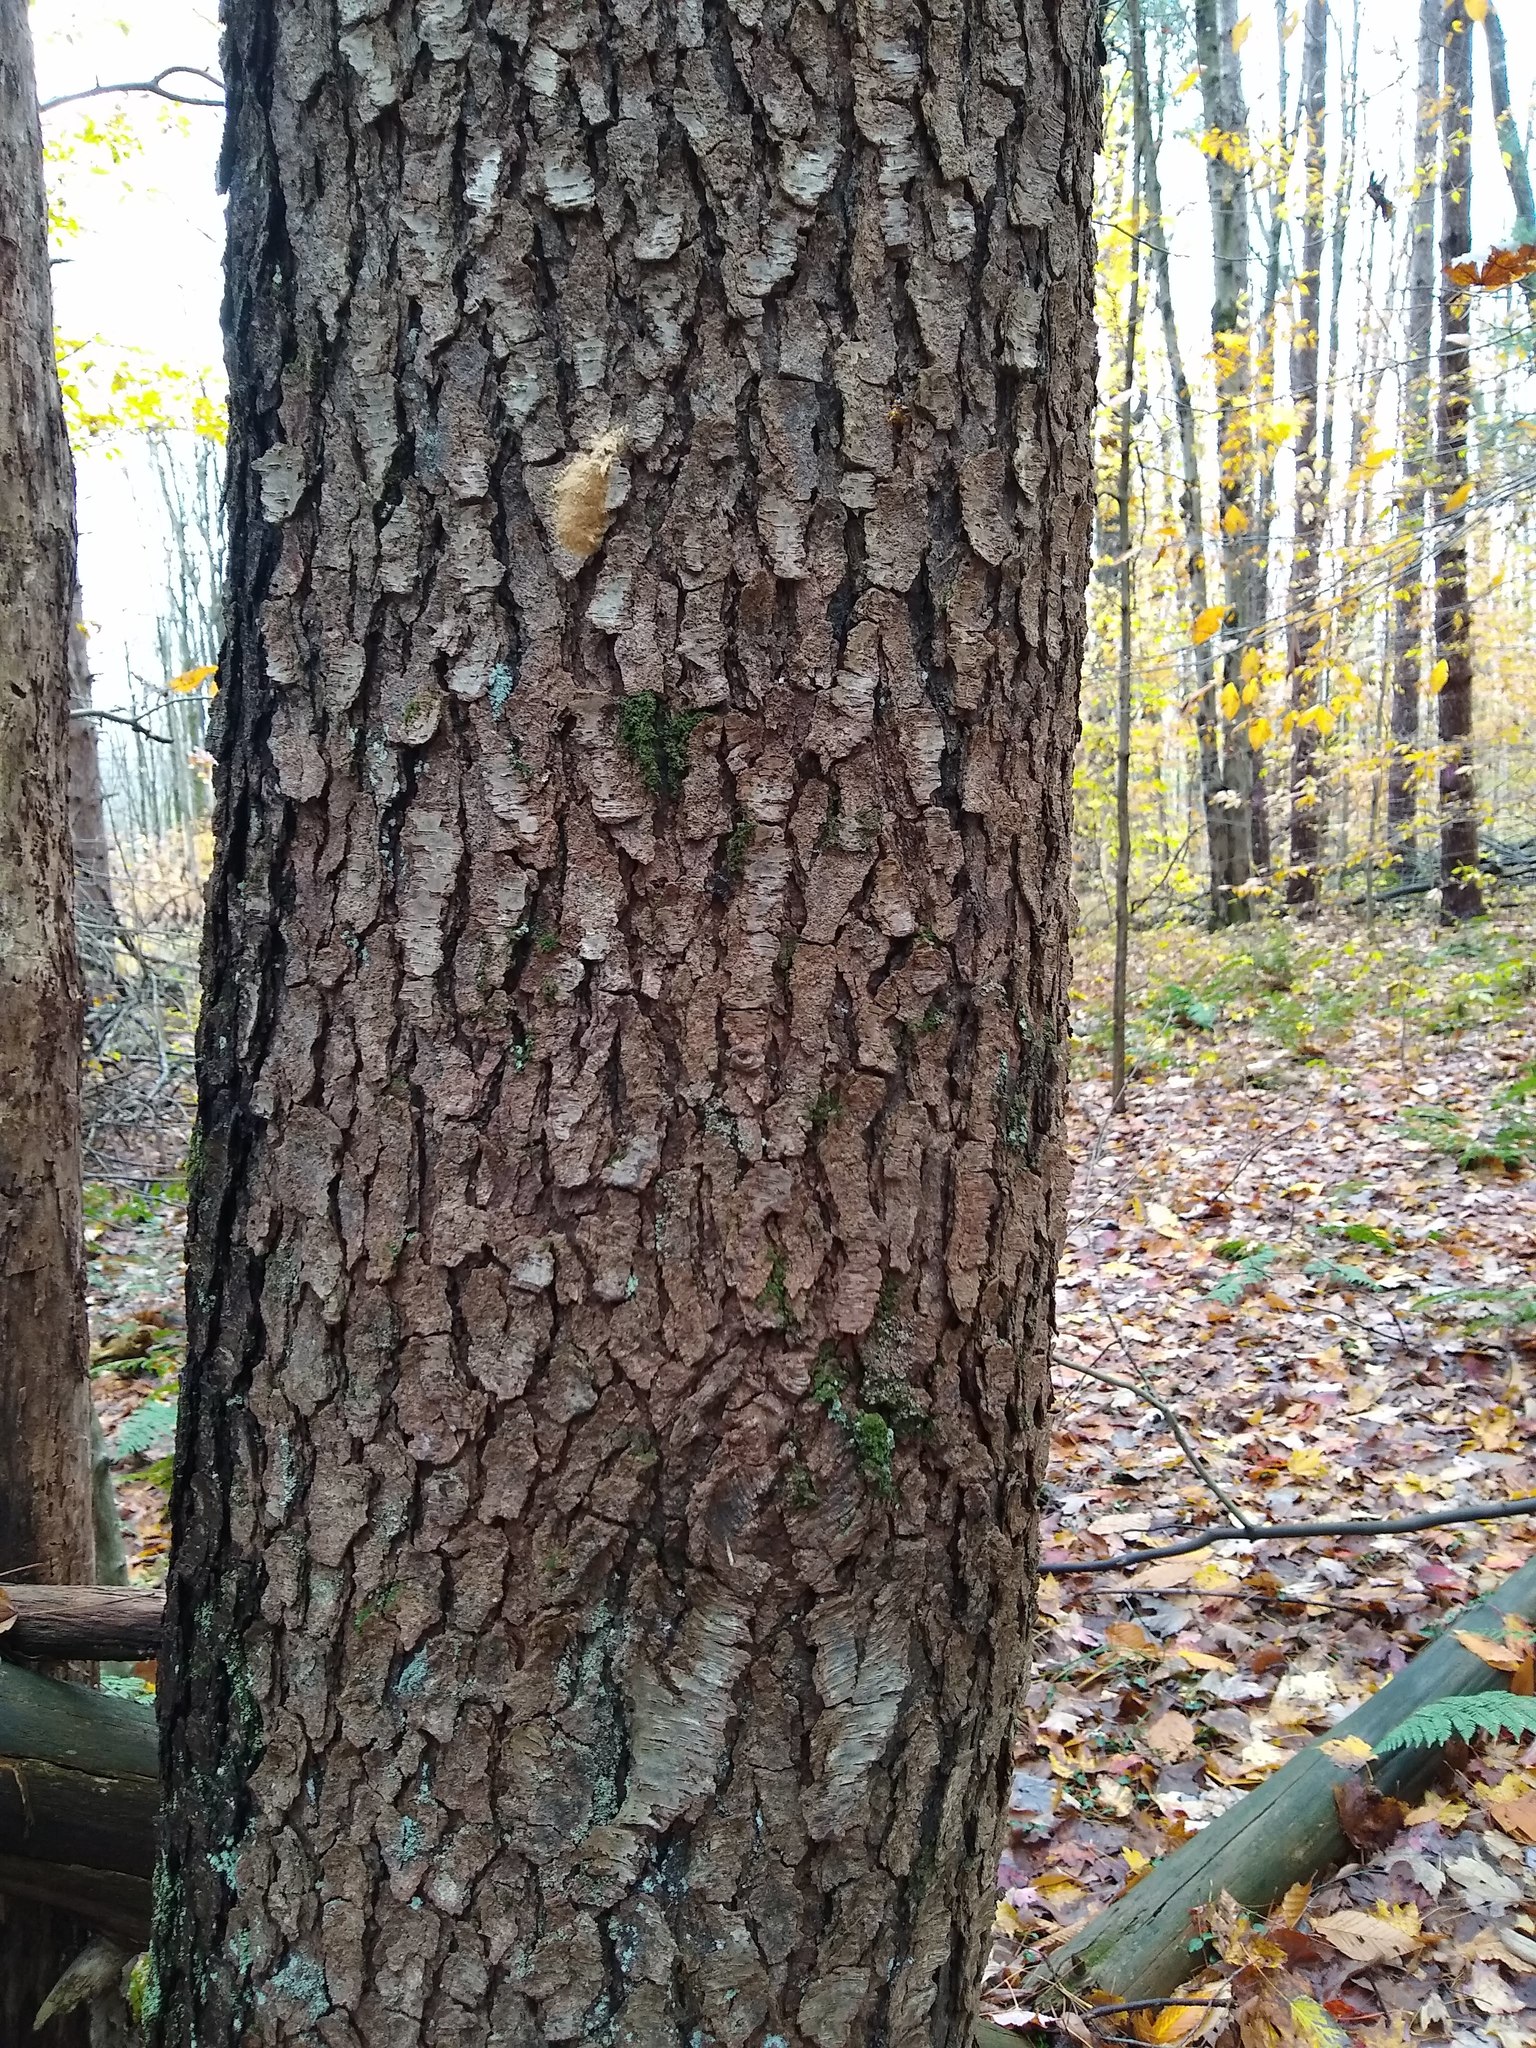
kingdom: Plantae
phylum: Tracheophyta
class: Pinopsida
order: Pinales
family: Pinaceae
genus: Pinus
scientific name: Pinus strobus
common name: Weymouth pine
